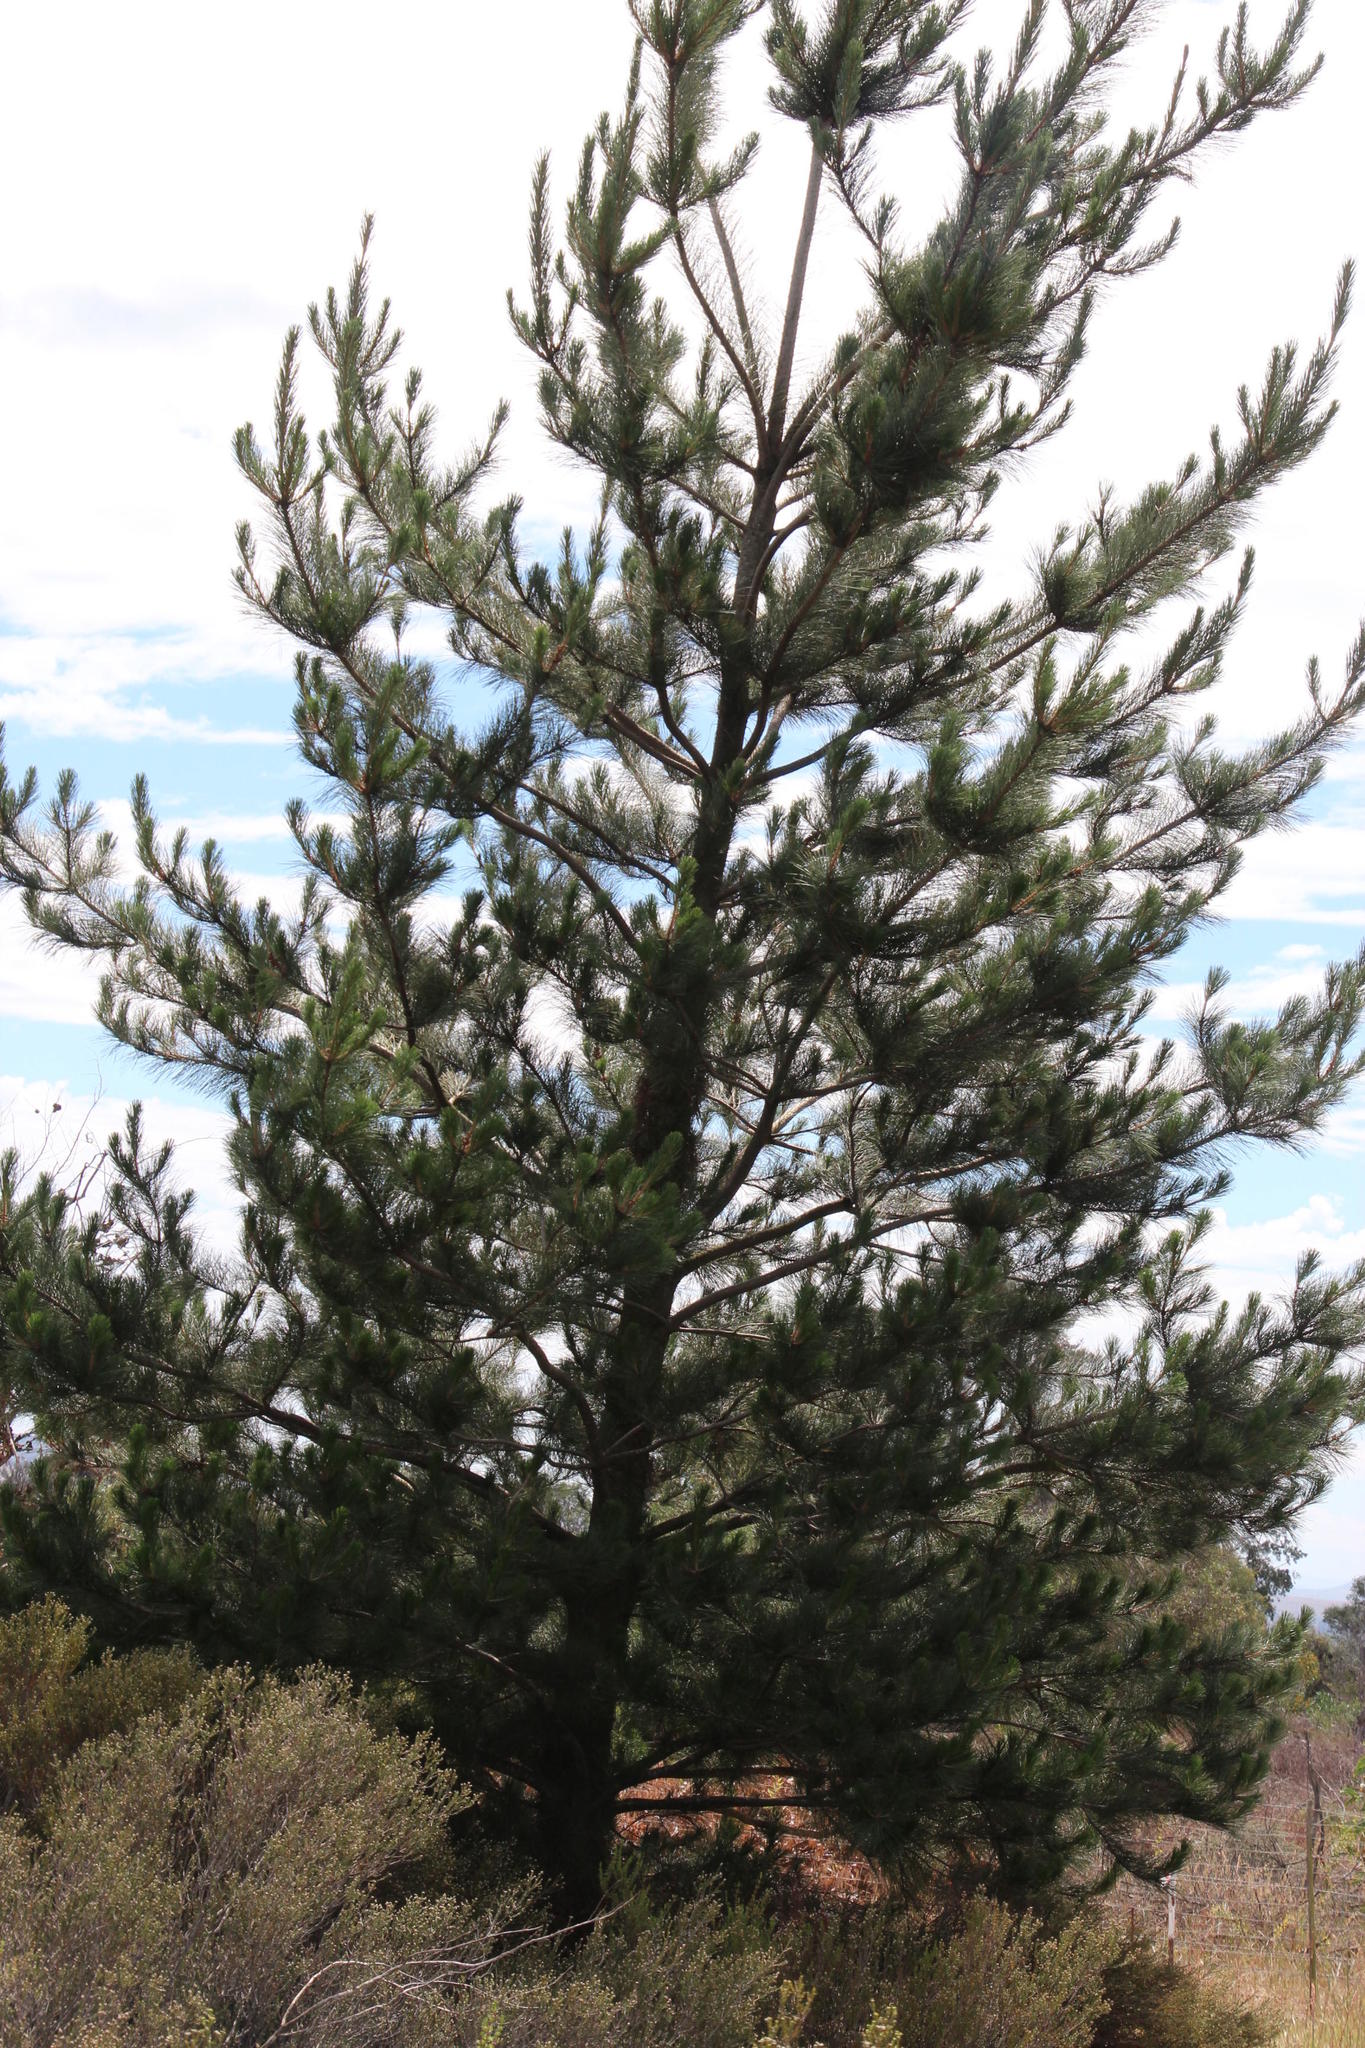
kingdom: Plantae
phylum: Tracheophyta
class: Pinopsida
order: Pinales
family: Pinaceae
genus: Pinus
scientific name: Pinus radiata
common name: Monterey pine
